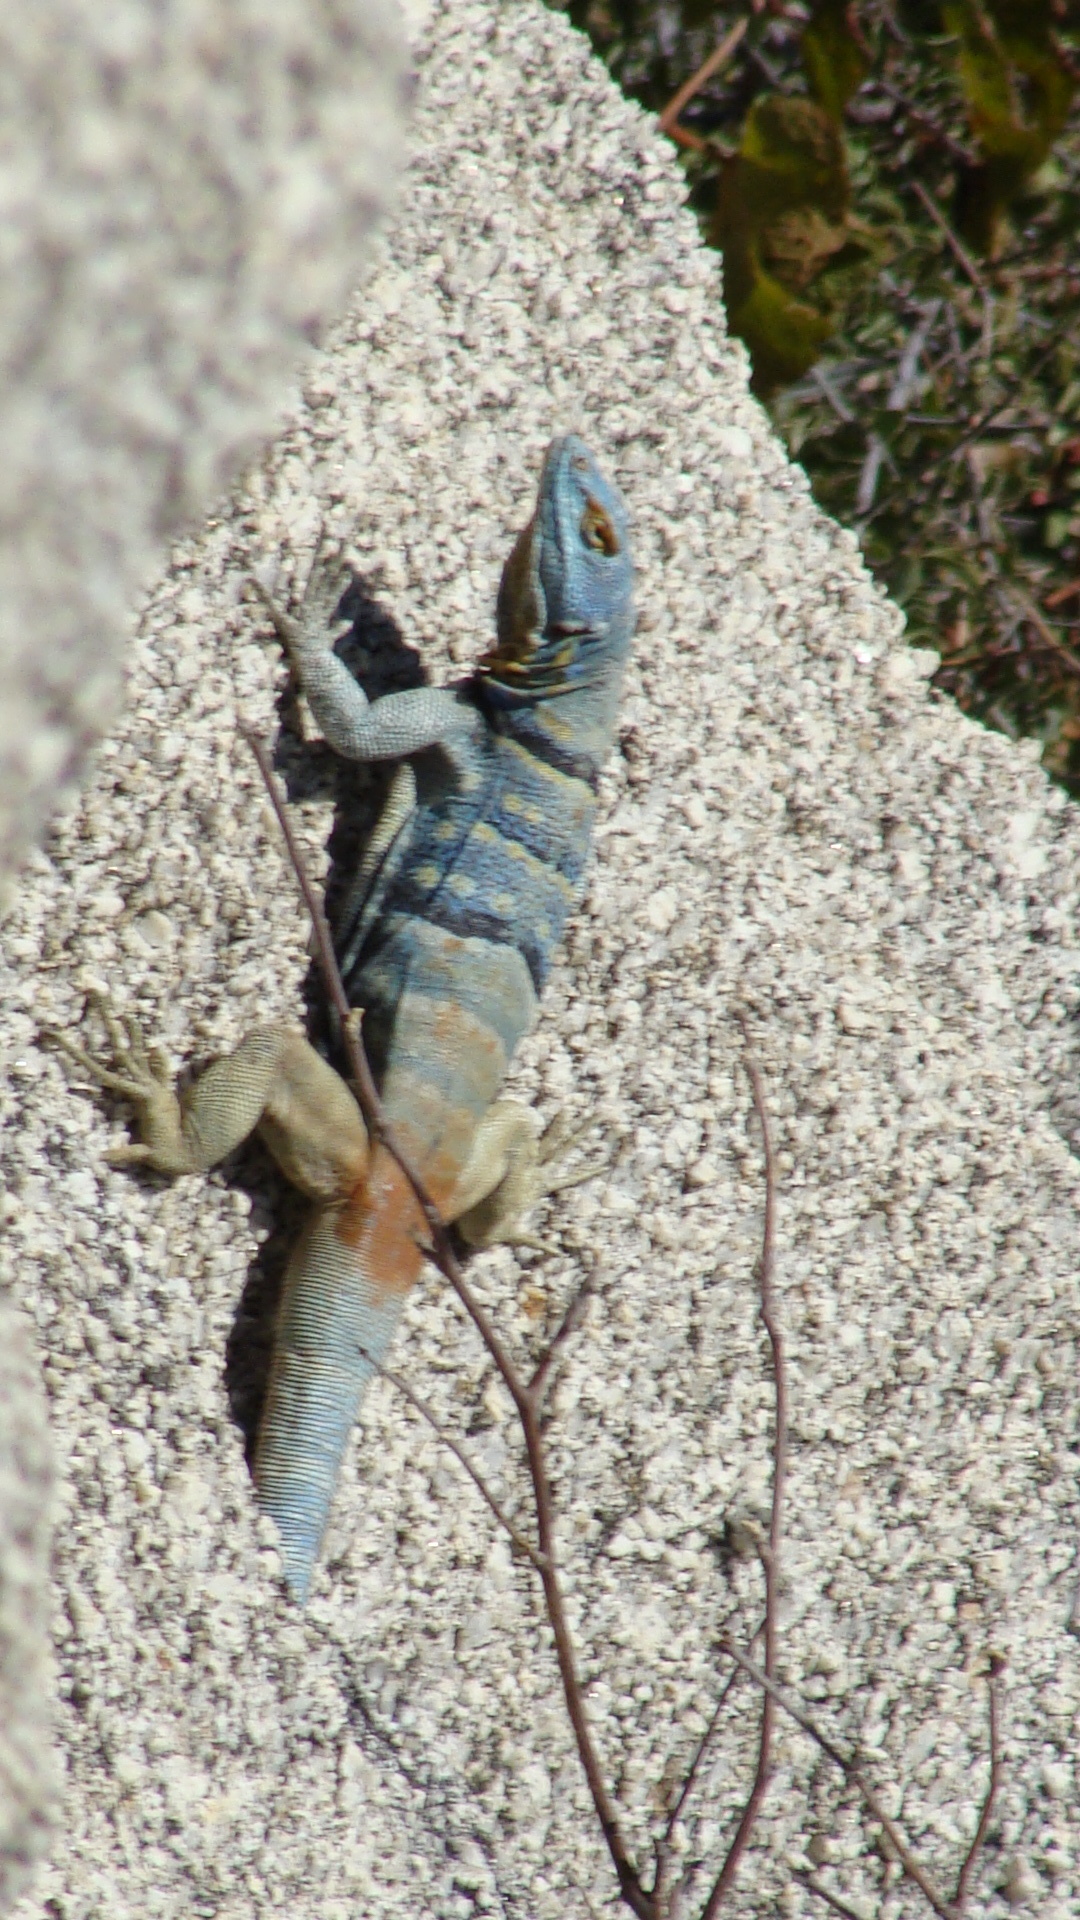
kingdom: Animalia
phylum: Chordata
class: Squamata
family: Phrynosomatidae
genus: Petrosaurus
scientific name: Petrosaurus thalassinus
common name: Baja california rock lizard
